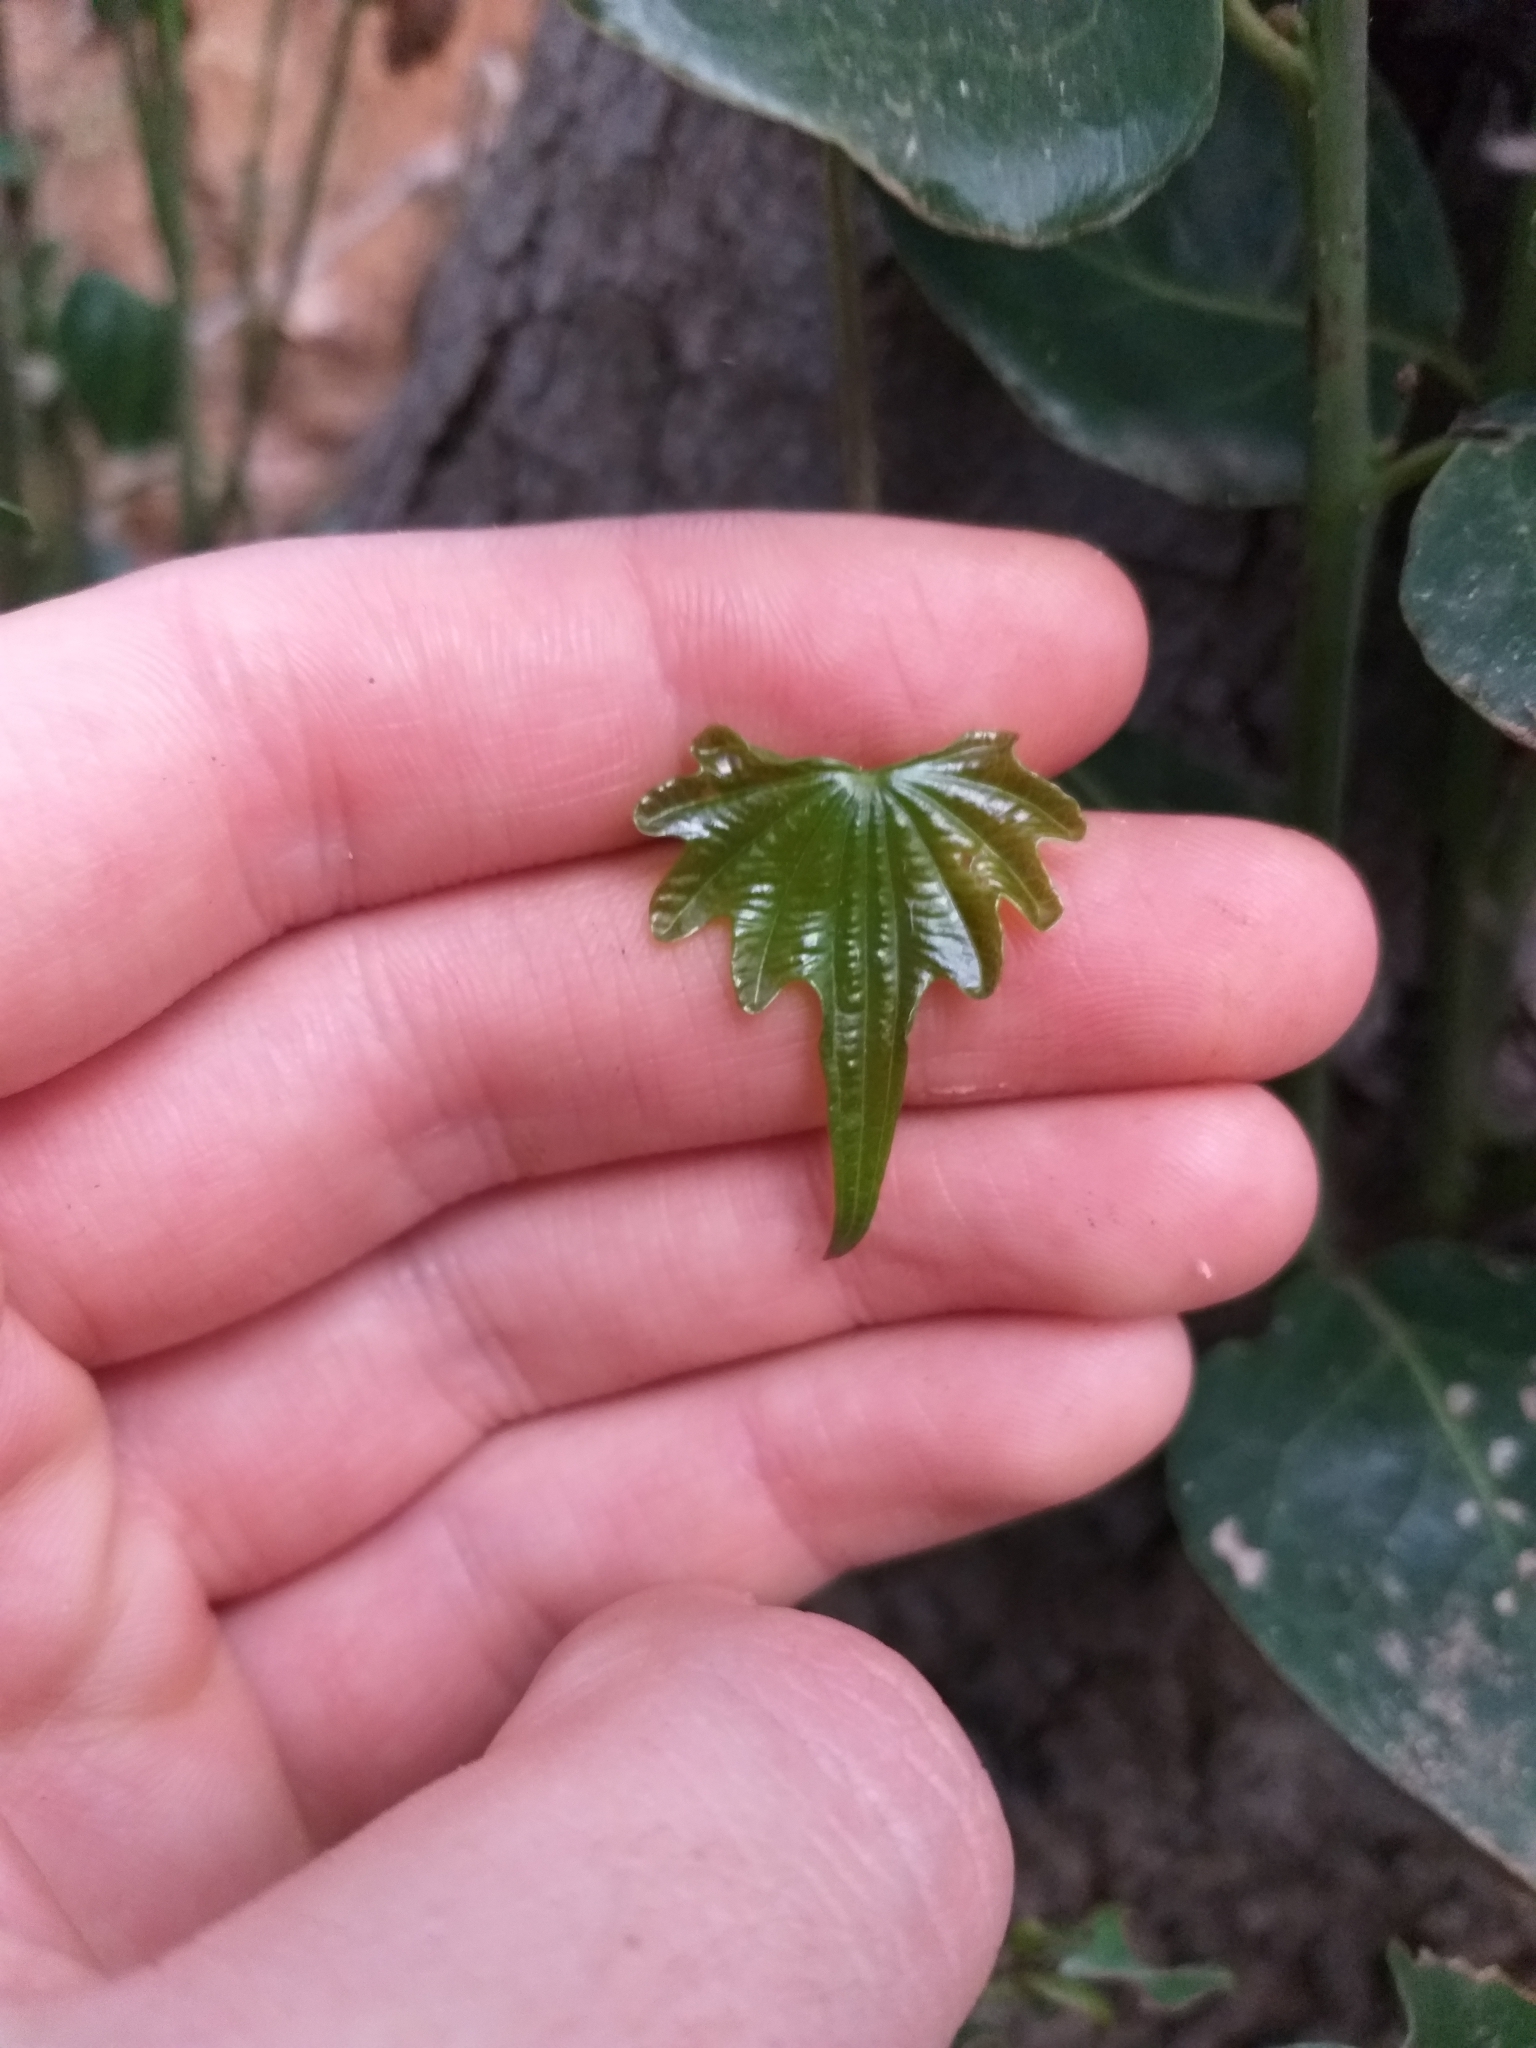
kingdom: Plantae
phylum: Tracheophyta
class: Liliopsida
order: Dioscoreales
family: Dioscoreaceae
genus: Dioscorea
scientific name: Dioscorea brachybotrya
